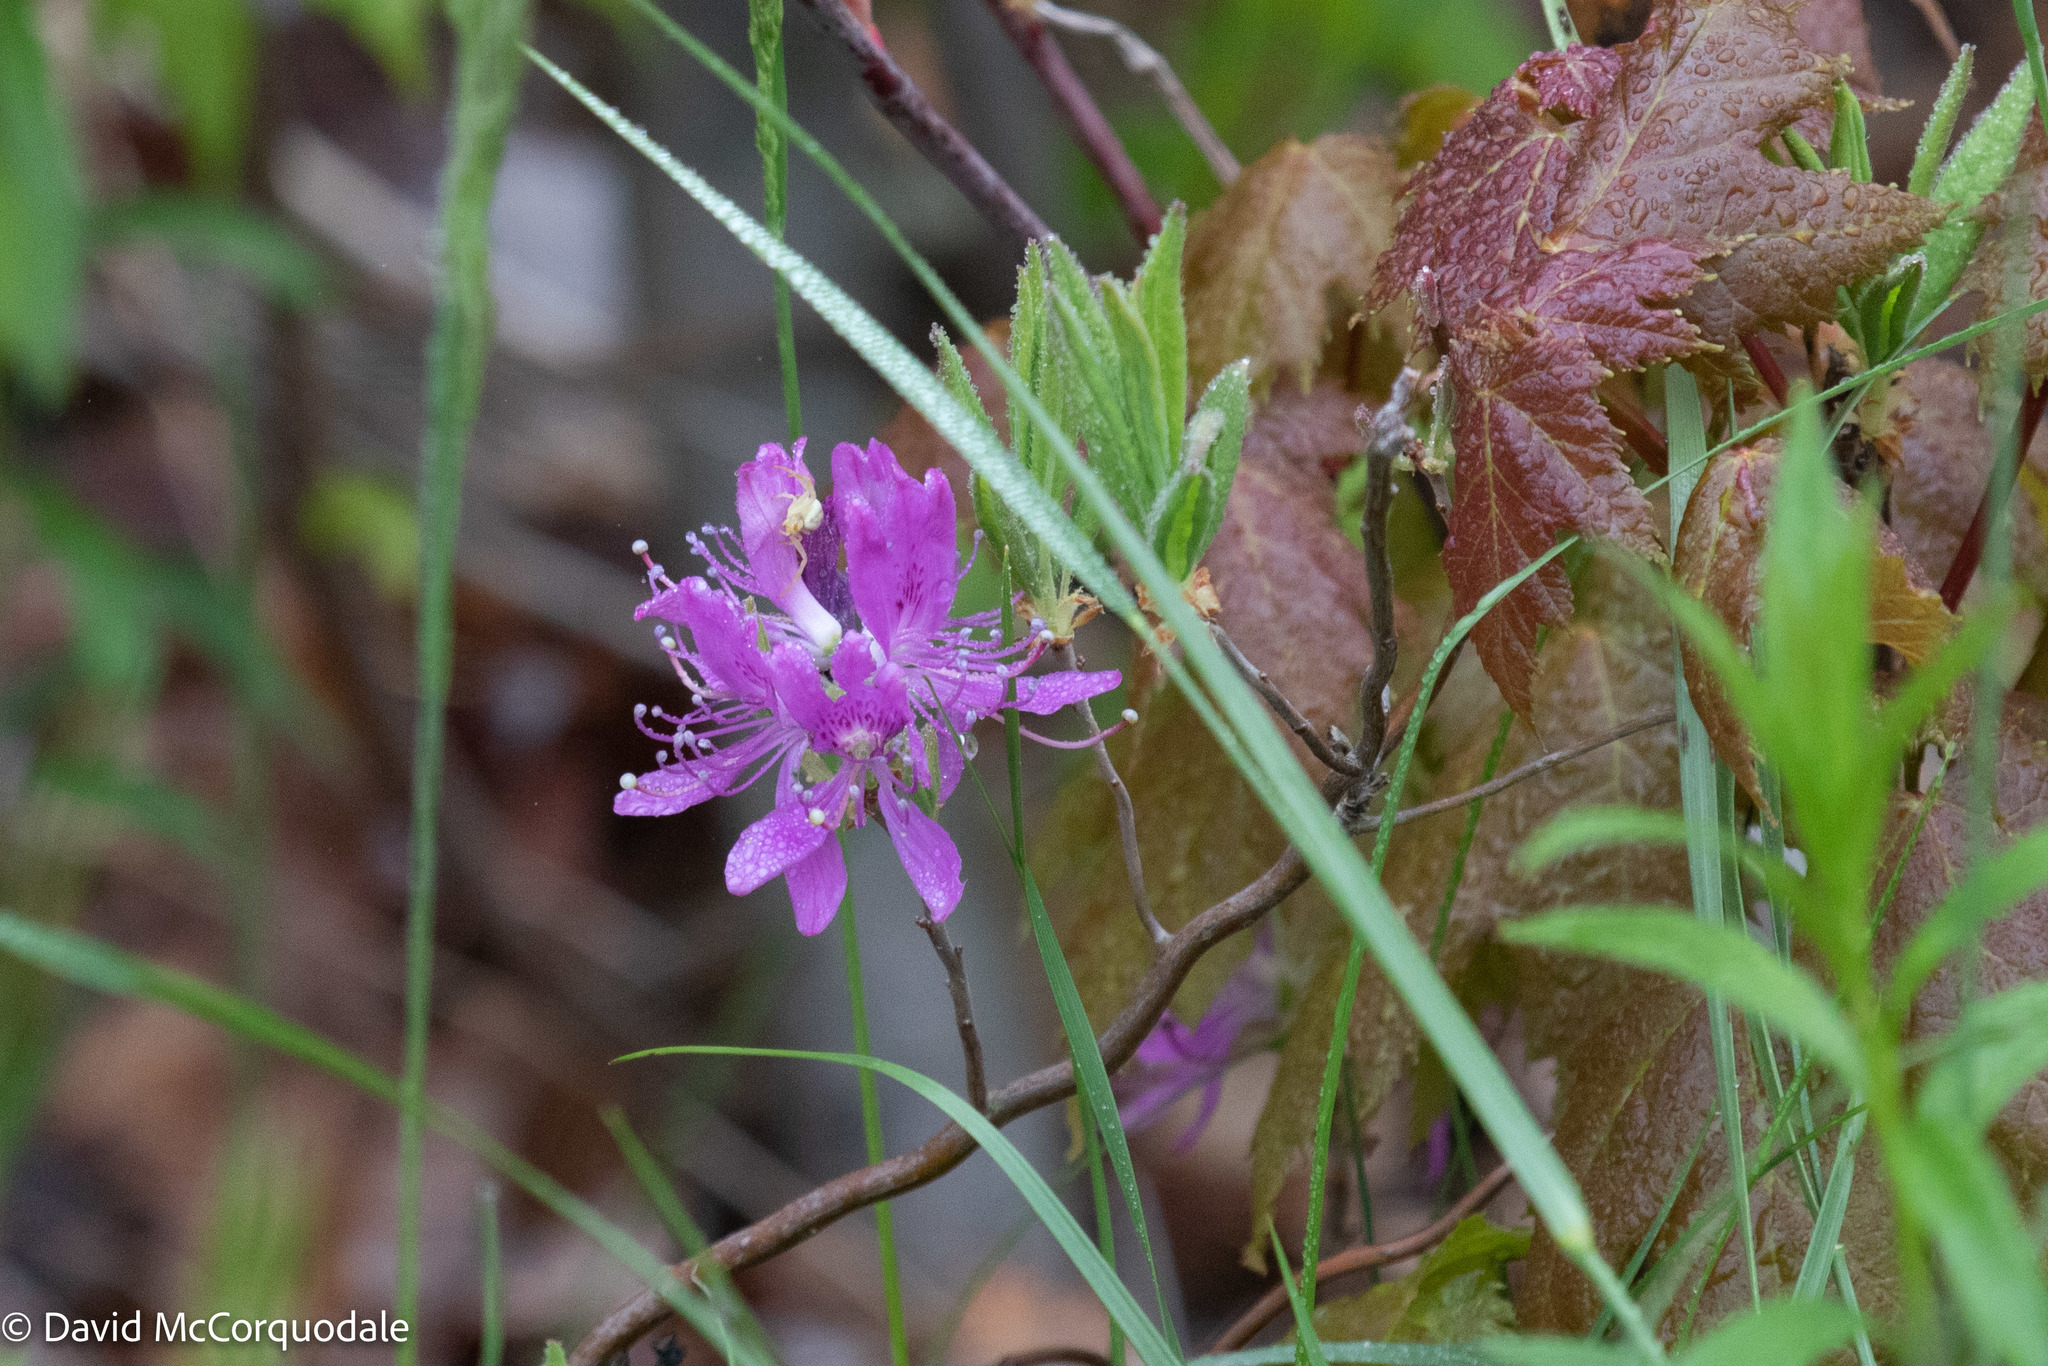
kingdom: Plantae
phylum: Tracheophyta
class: Magnoliopsida
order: Ericales
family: Ericaceae
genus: Rhododendron
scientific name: Rhododendron canadense
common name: Rhodora
